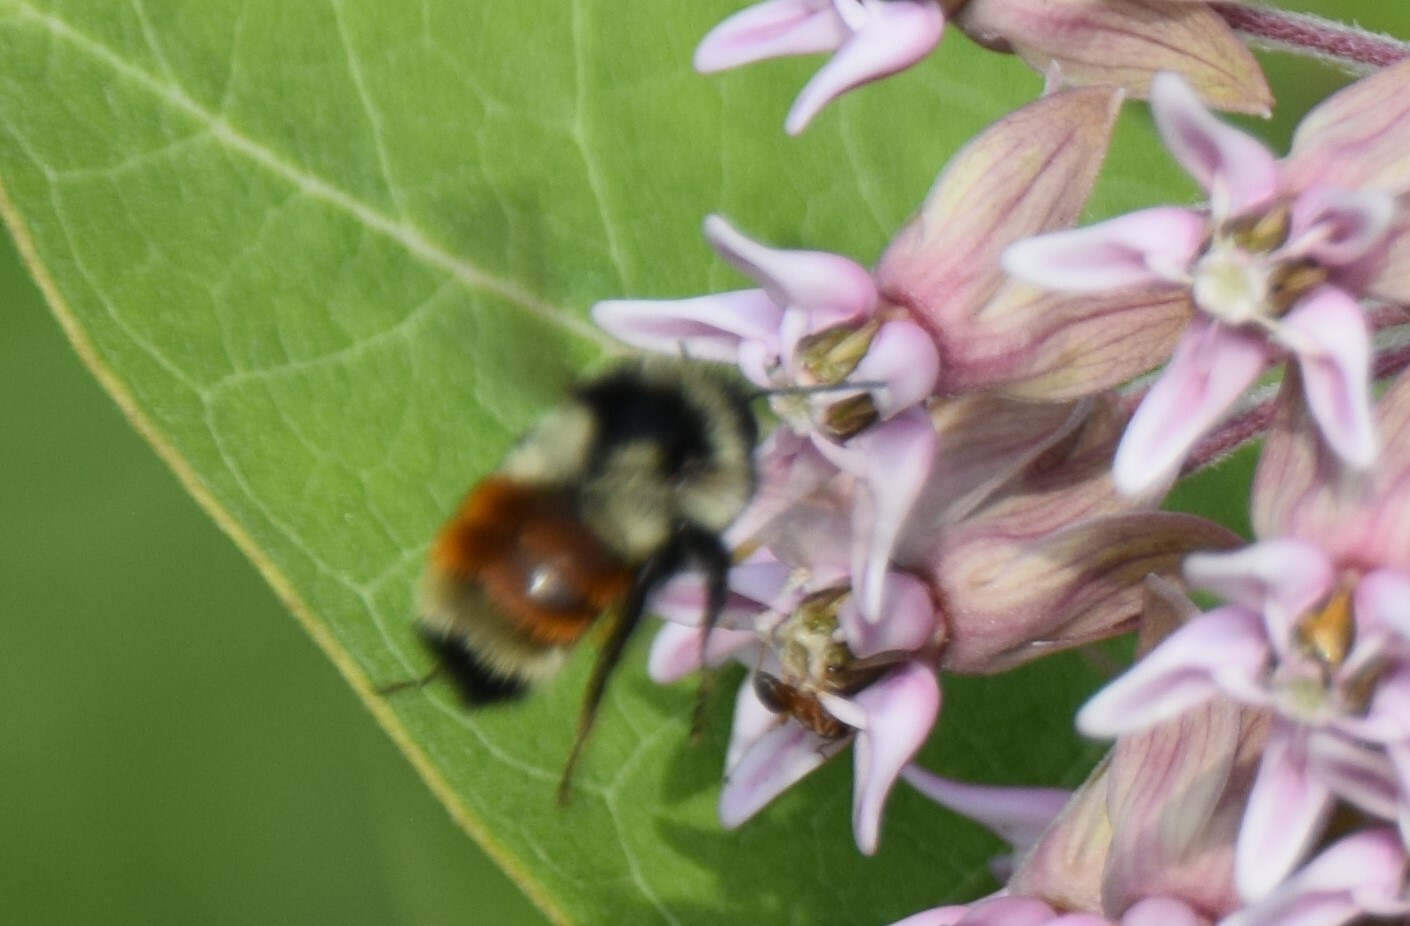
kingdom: Animalia
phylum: Arthropoda
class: Insecta
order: Hymenoptera
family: Apidae
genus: Bombus
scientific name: Bombus ternarius
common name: Tri-colored bumble bee
